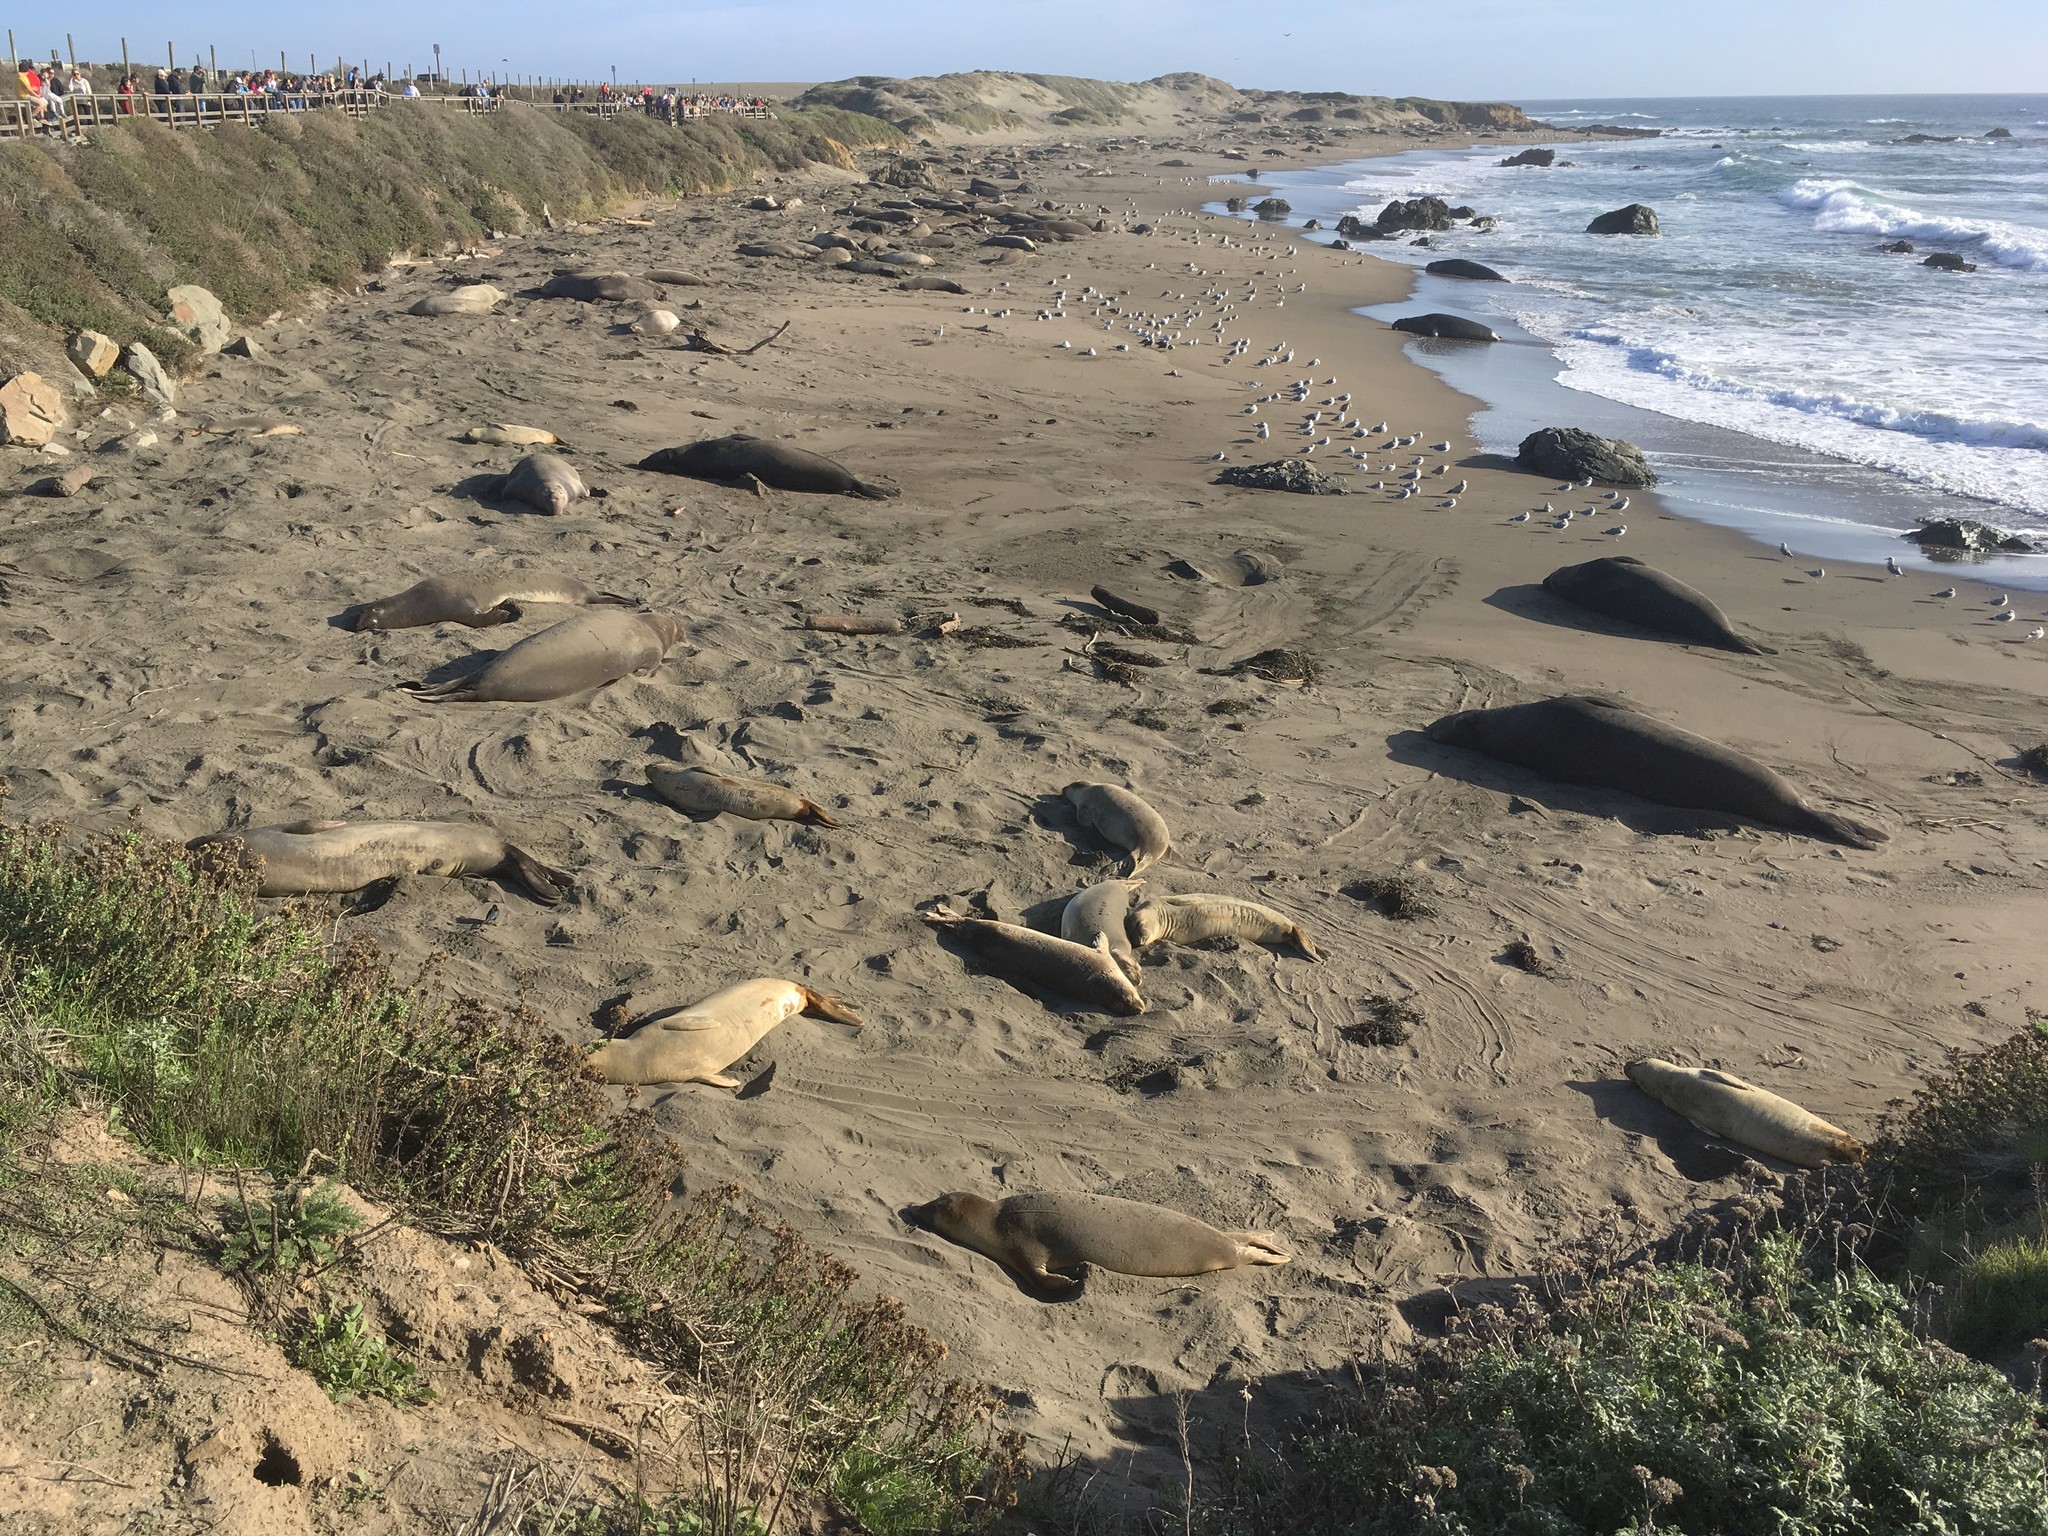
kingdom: Animalia
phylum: Chordata
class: Mammalia
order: Carnivora
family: Phocidae
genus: Mirounga
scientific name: Mirounga angustirostris
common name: Northern elephant seal
